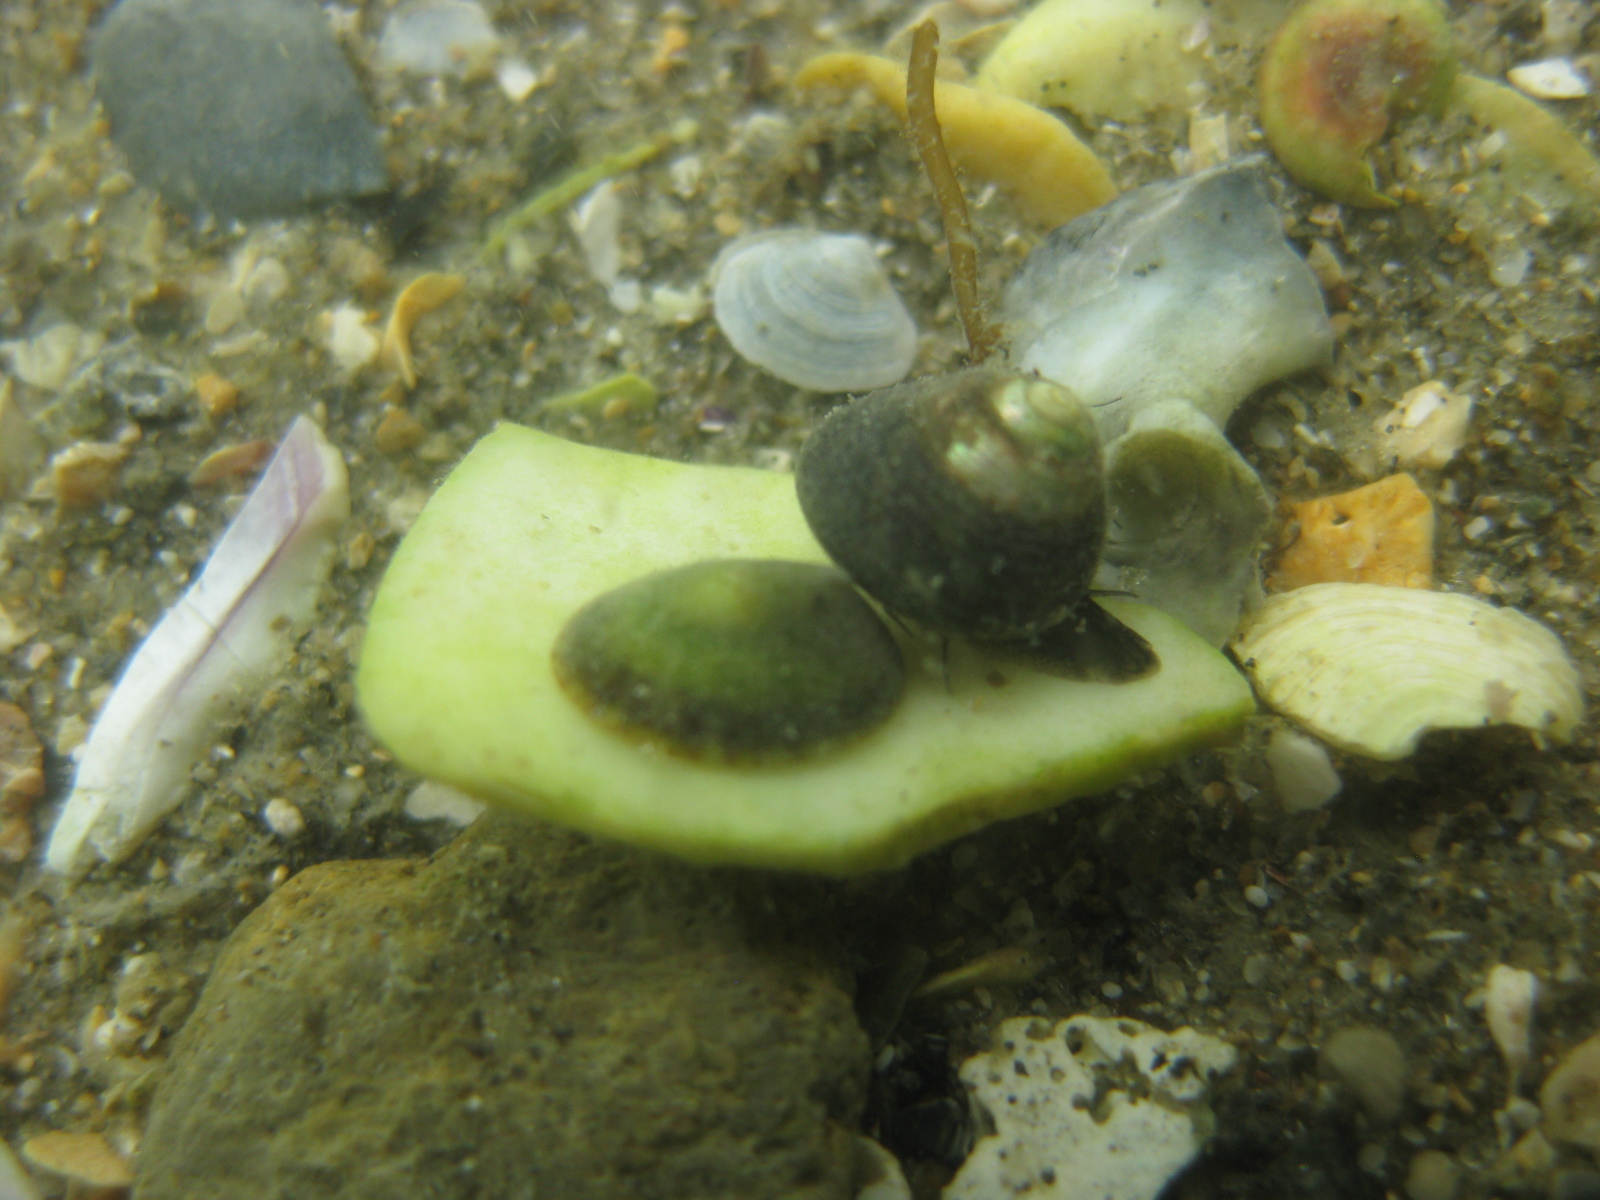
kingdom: Animalia
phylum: Mollusca
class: Gastropoda
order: Trochida
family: Trochidae
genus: Micrelenchus
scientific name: Micrelenchus huttonii
